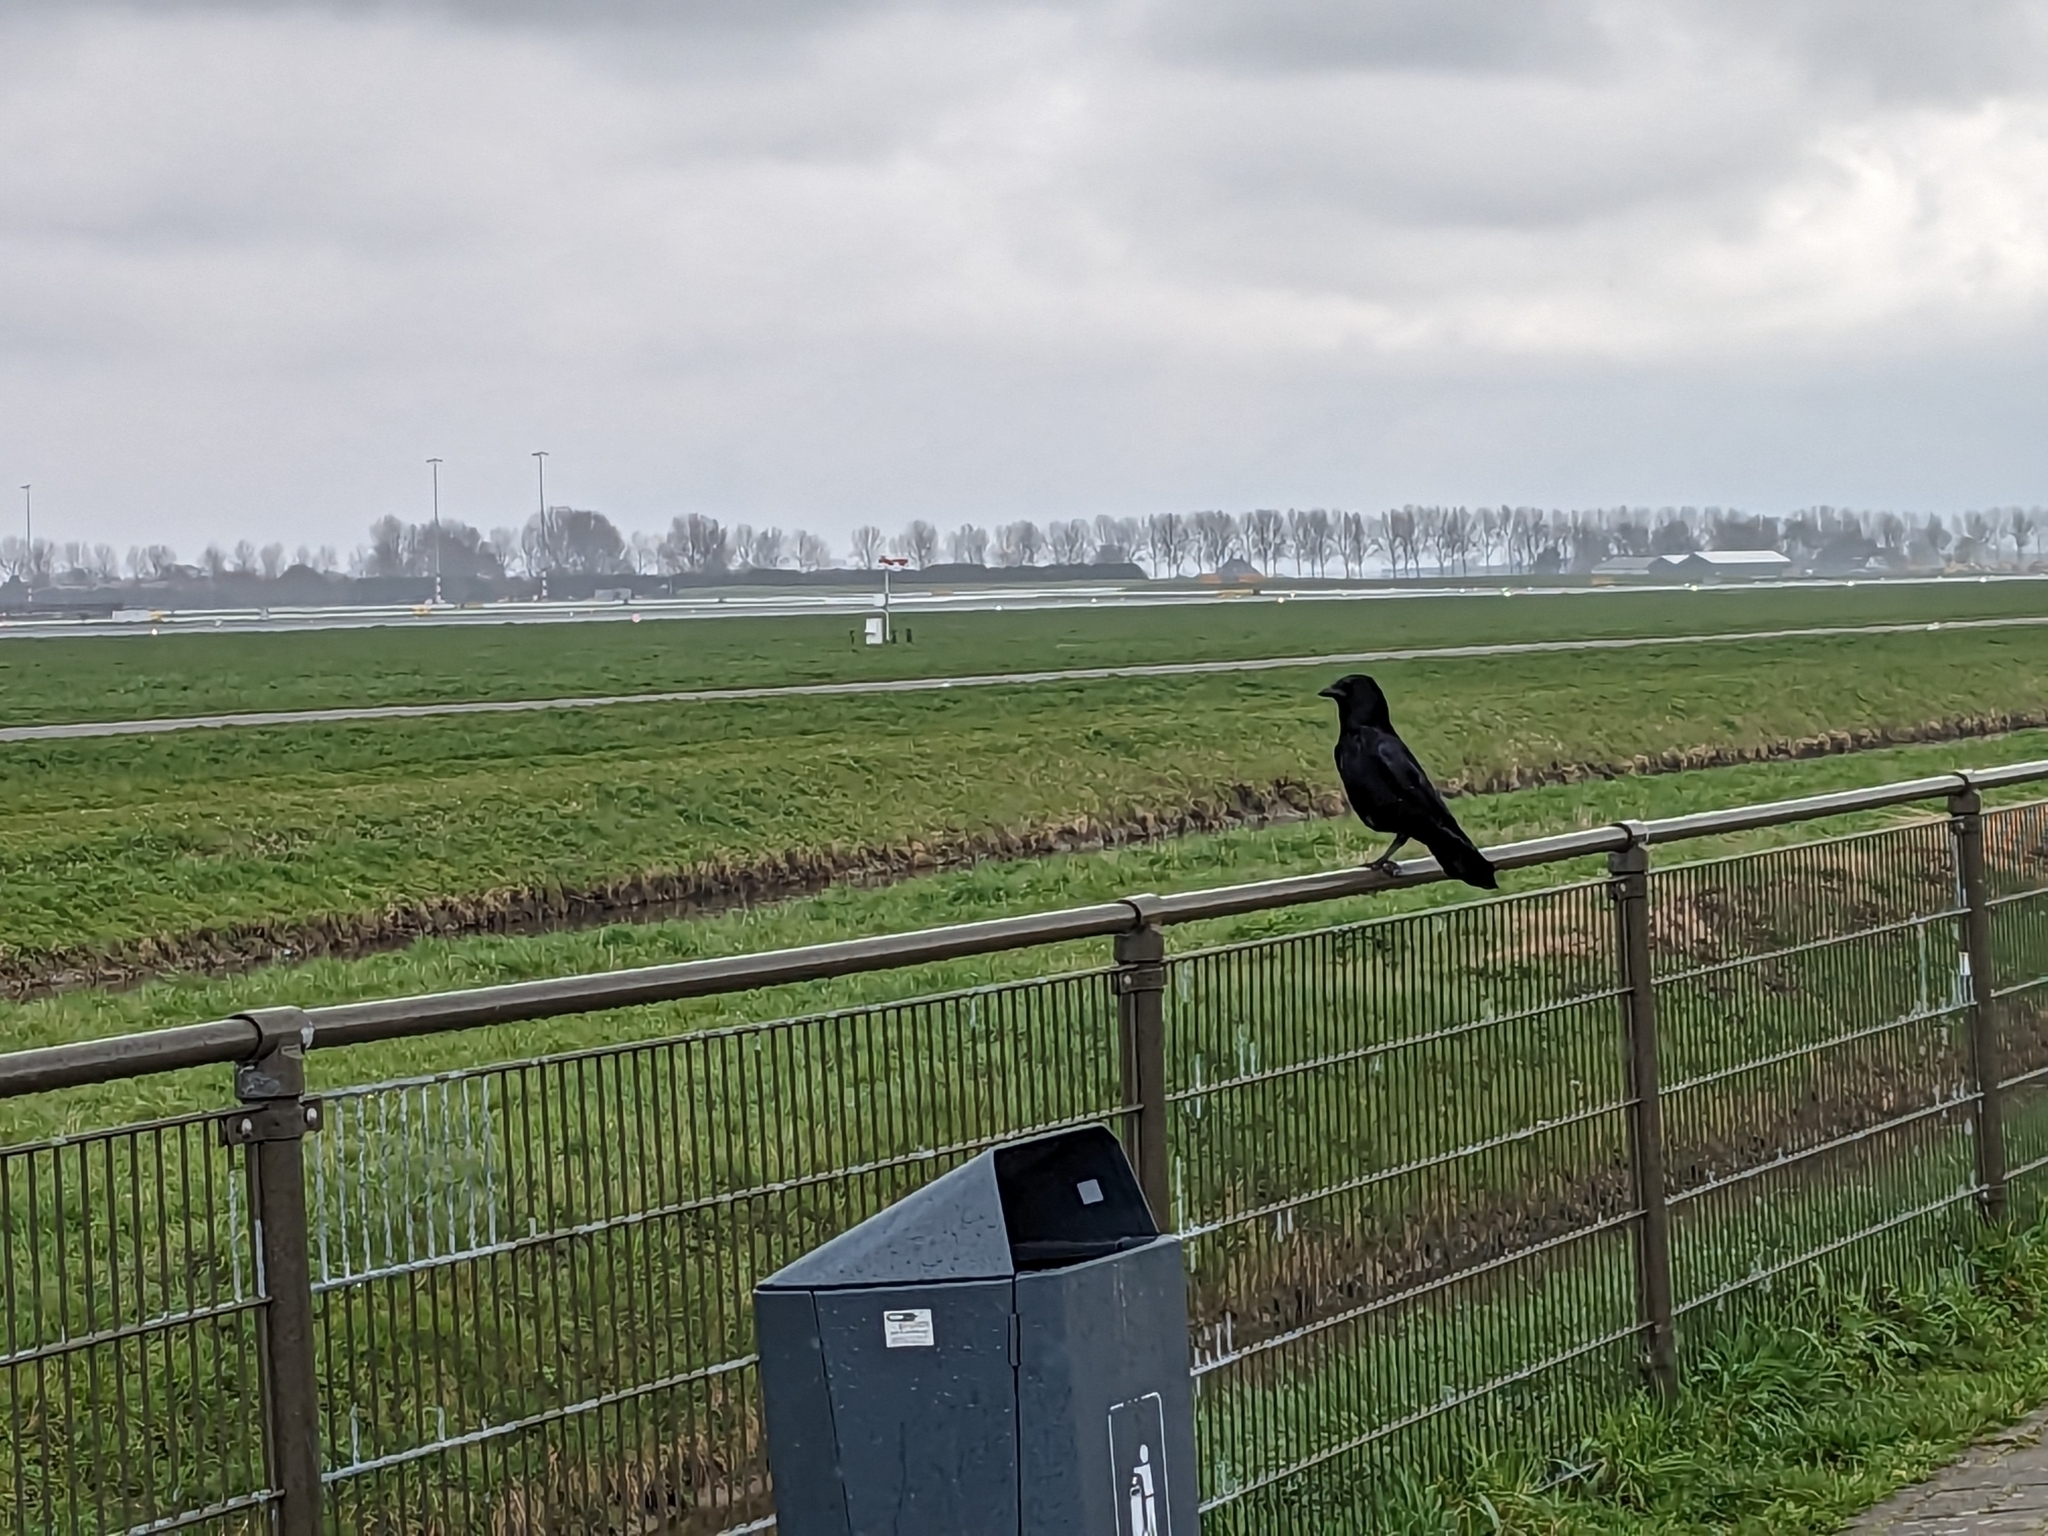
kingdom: Animalia
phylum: Chordata
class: Aves
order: Passeriformes
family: Corvidae
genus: Corvus
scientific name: Corvus corone
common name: Carrion crow
